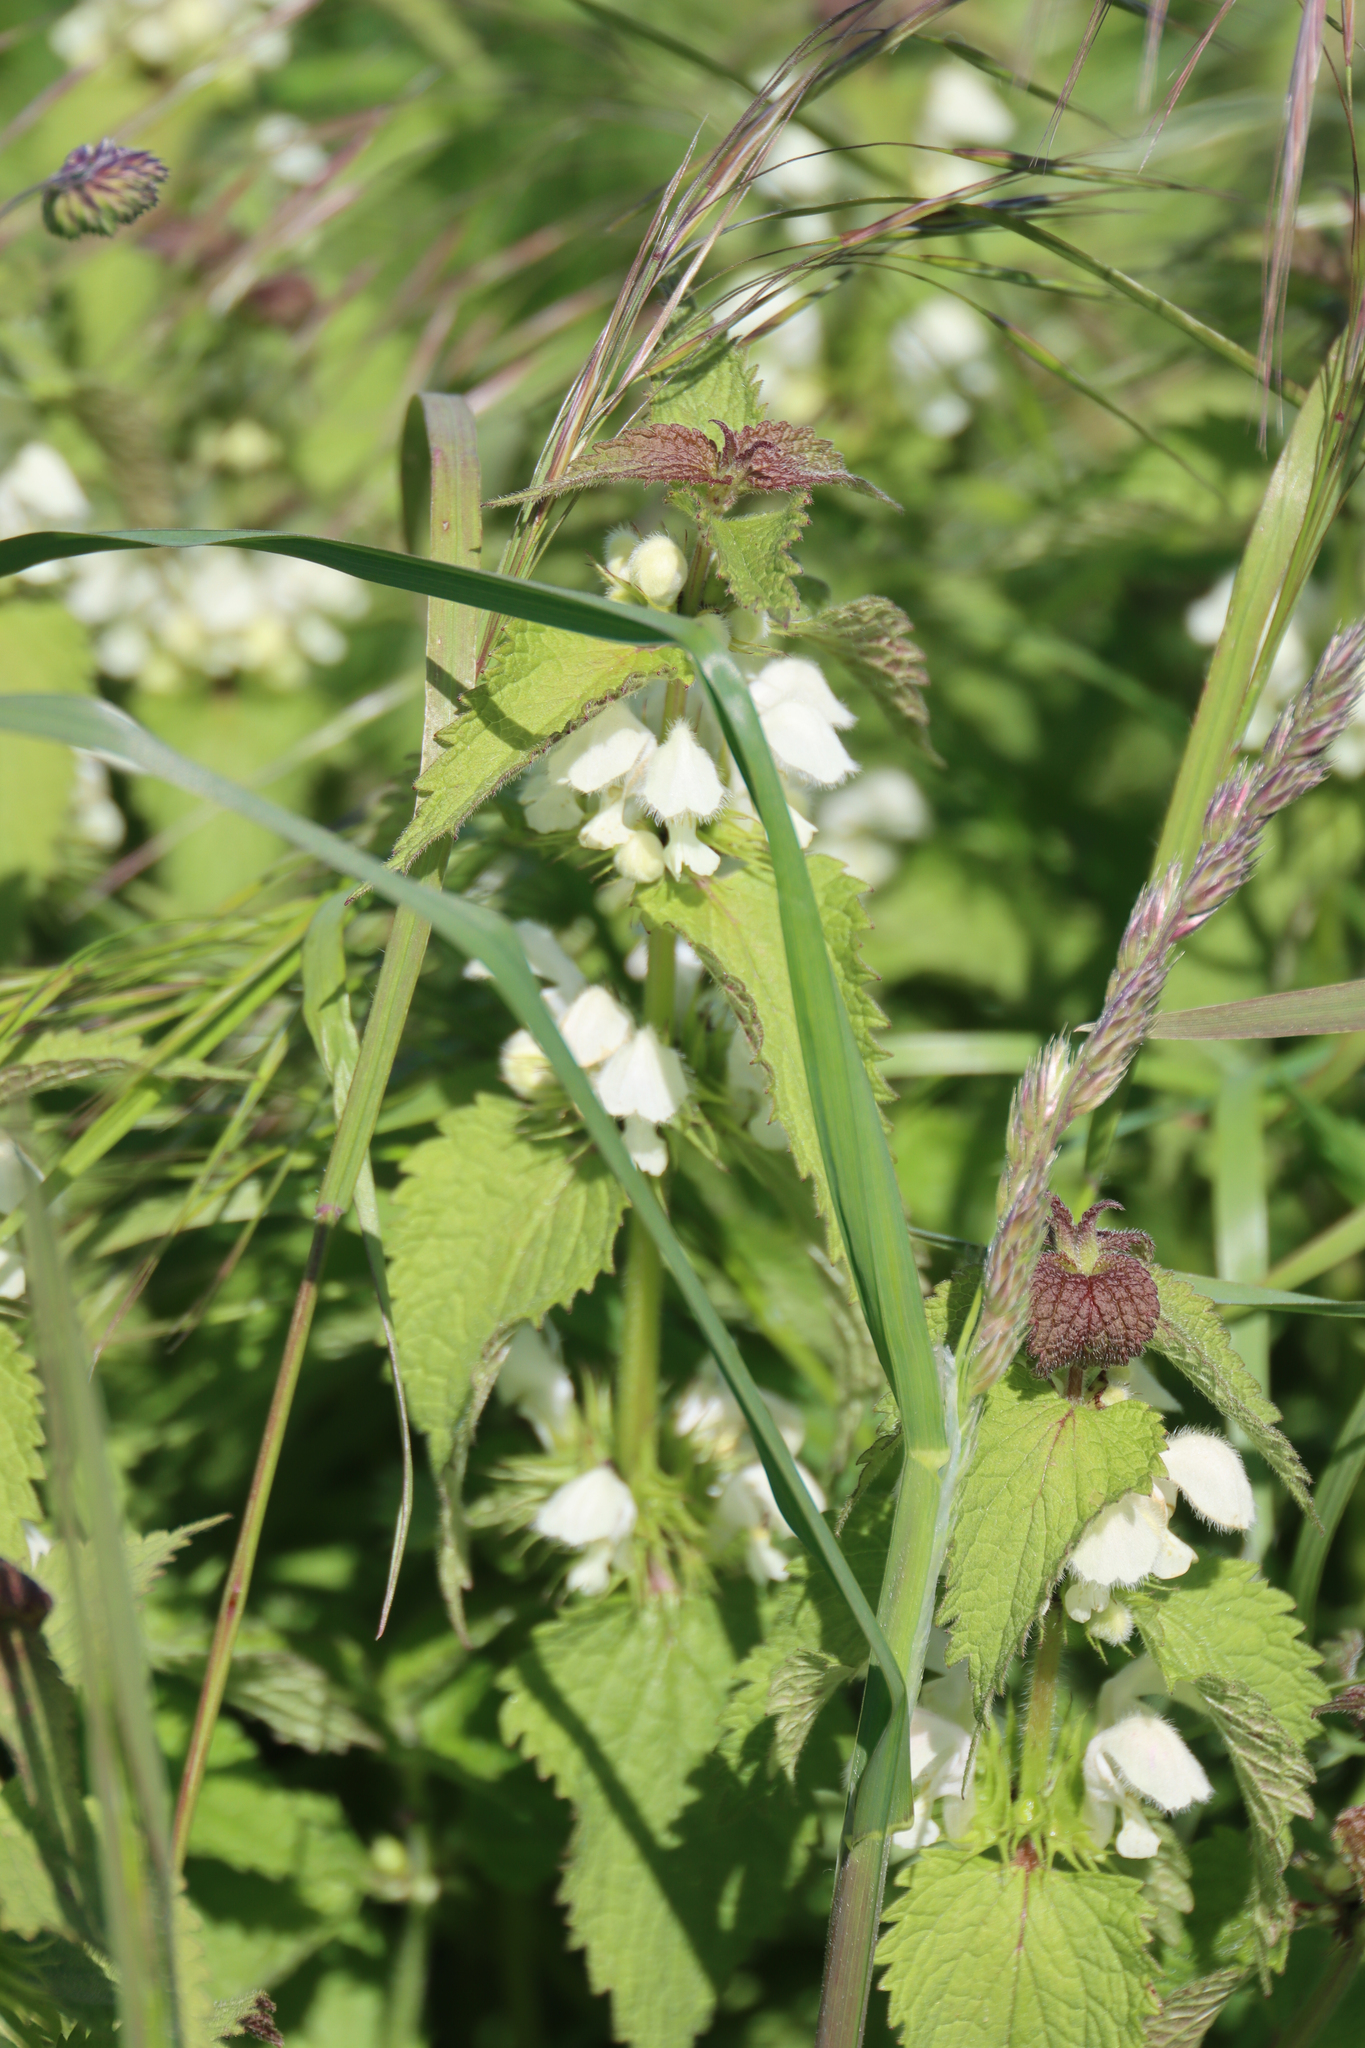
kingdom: Plantae
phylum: Tracheophyta
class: Magnoliopsida
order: Lamiales
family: Lamiaceae
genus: Lamium
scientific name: Lamium album
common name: White dead-nettle
